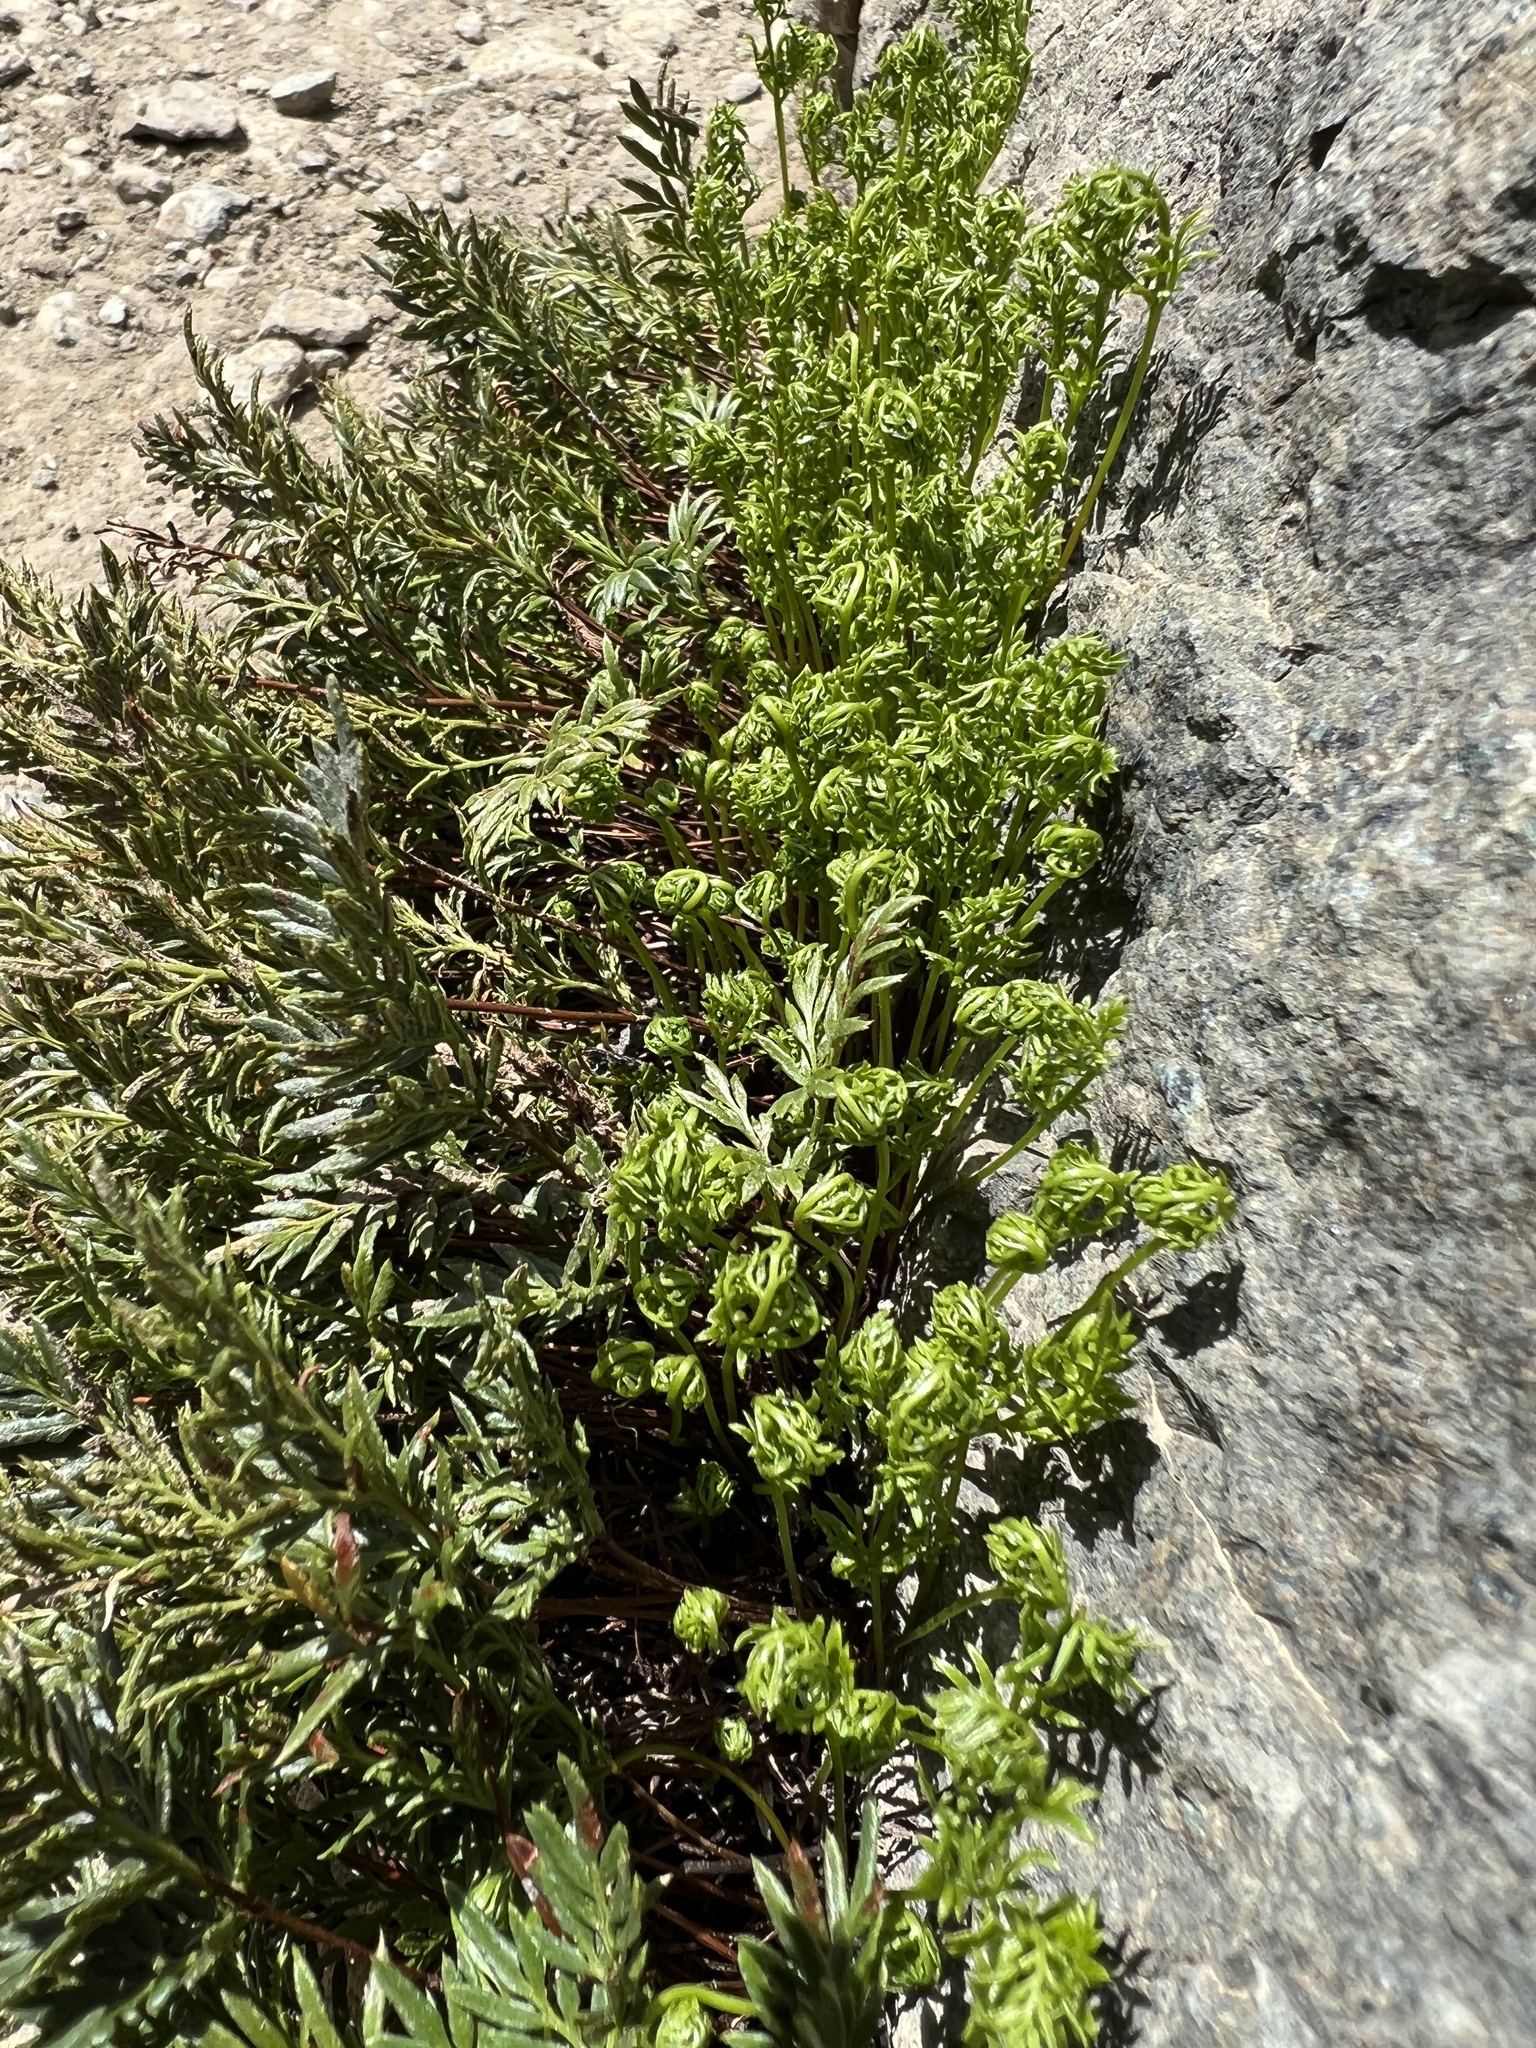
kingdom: Plantae
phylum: Tracheophyta
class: Polypodiopsida
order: Polypodiales
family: Pteridaceae
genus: Aspidotis
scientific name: Aspidotis densa
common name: Indian's dream
